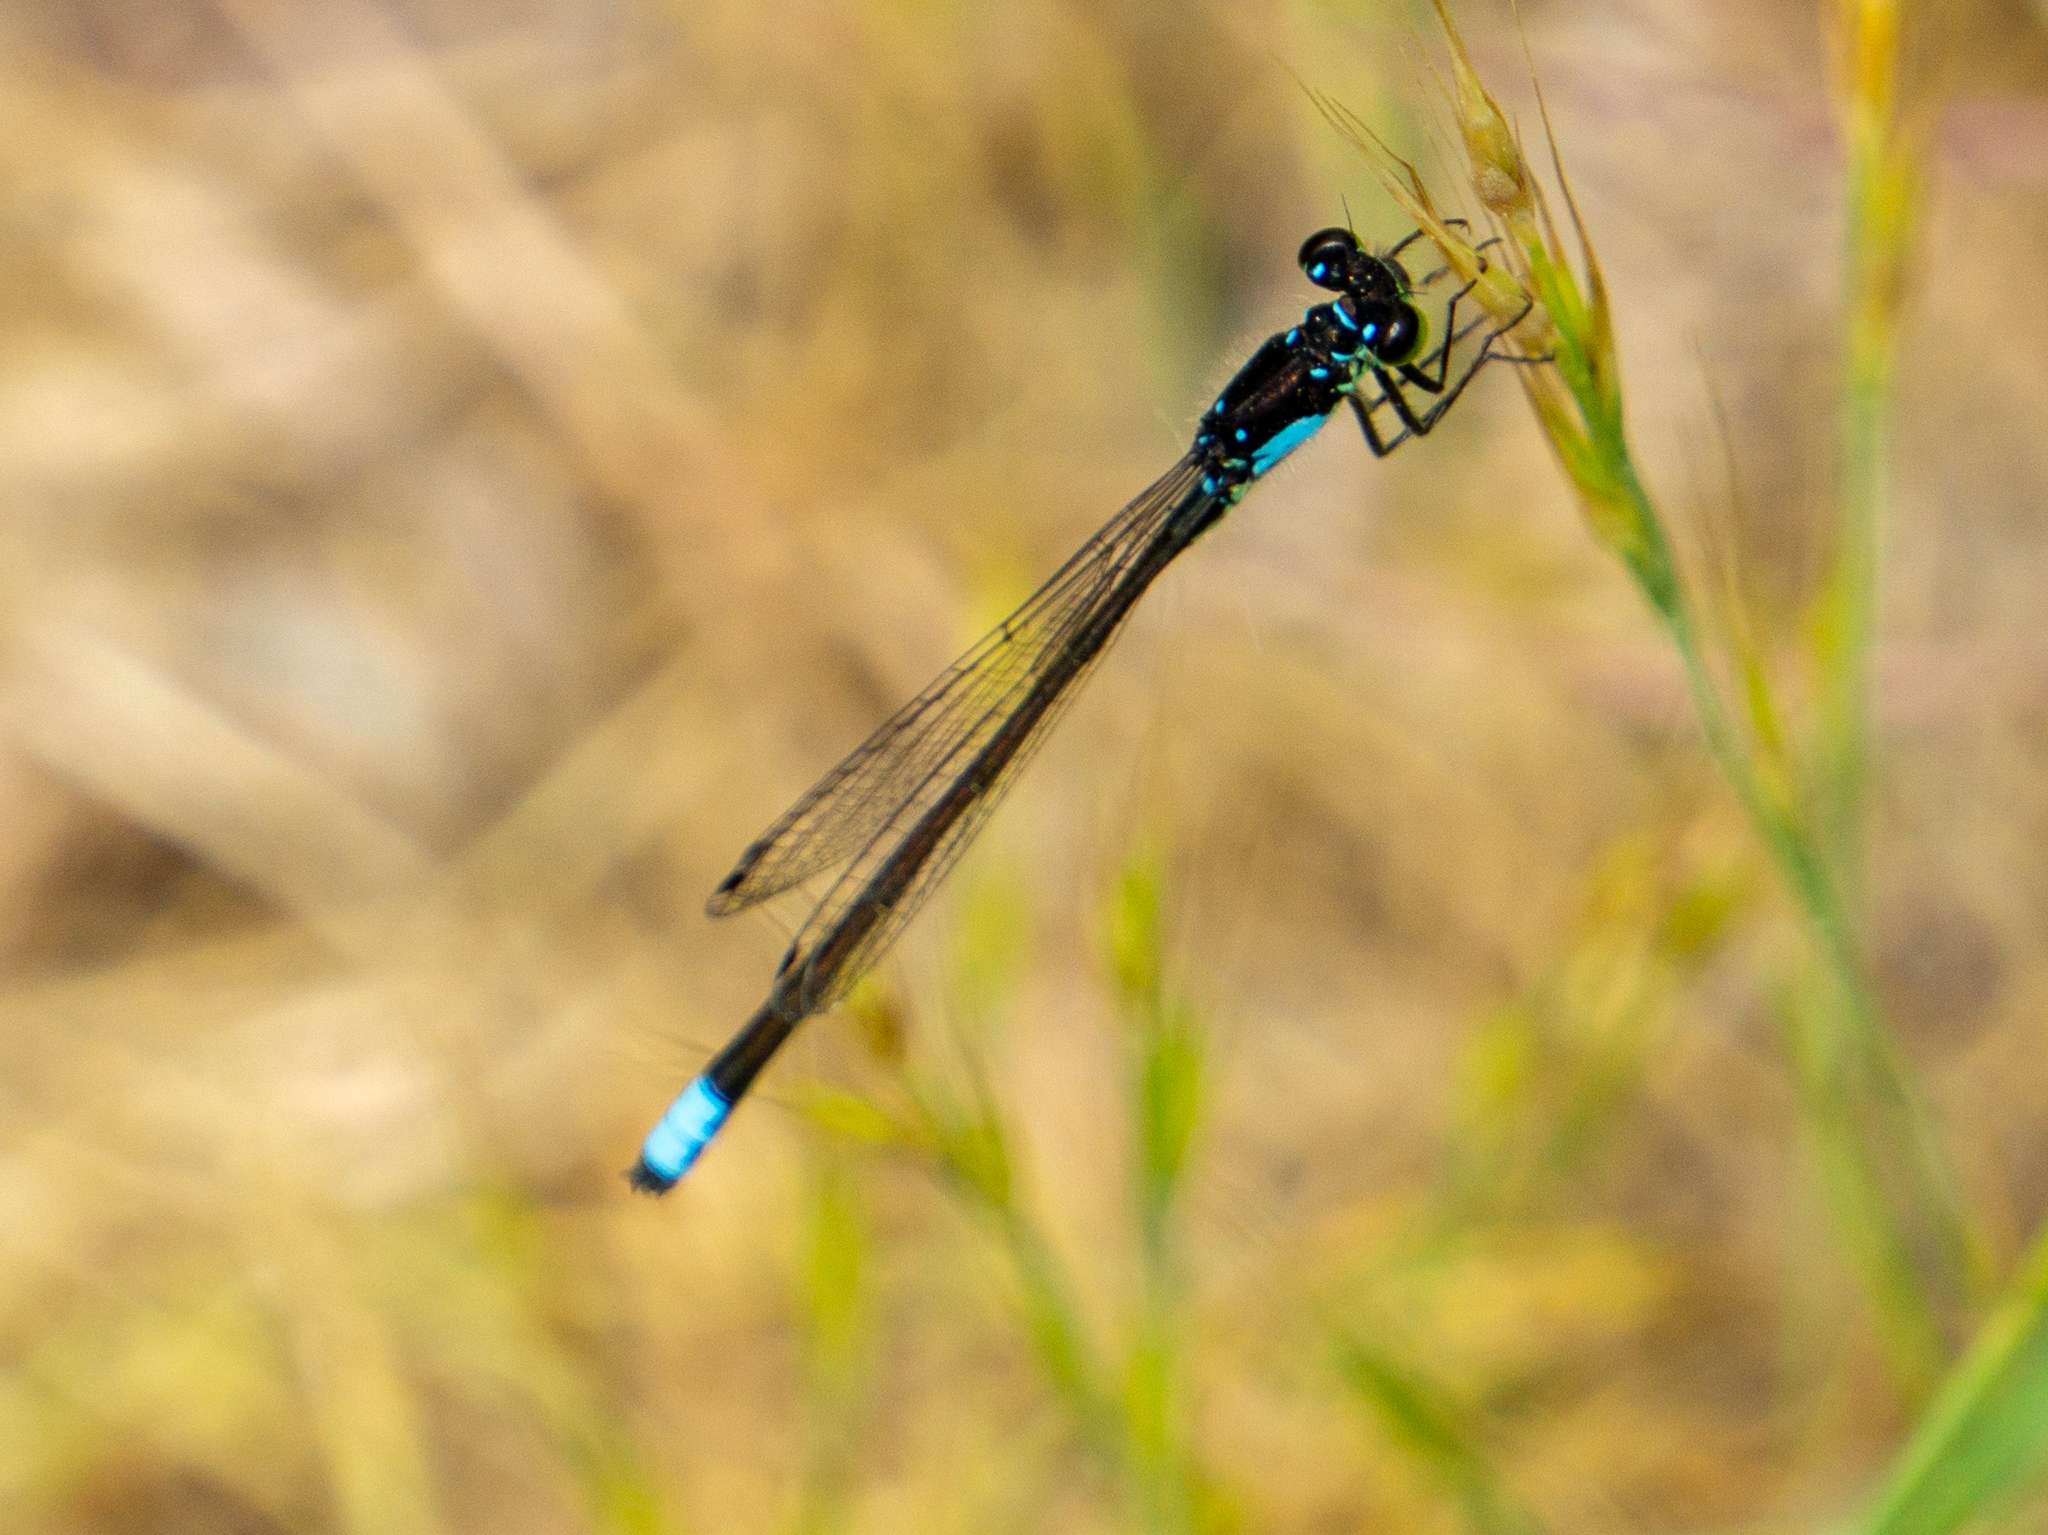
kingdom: Animalia
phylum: Arthropoda
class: Insecta
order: Odonata
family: Coenagrionidae
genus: Ischnura
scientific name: Ischnura cervula
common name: Pacific forktail
